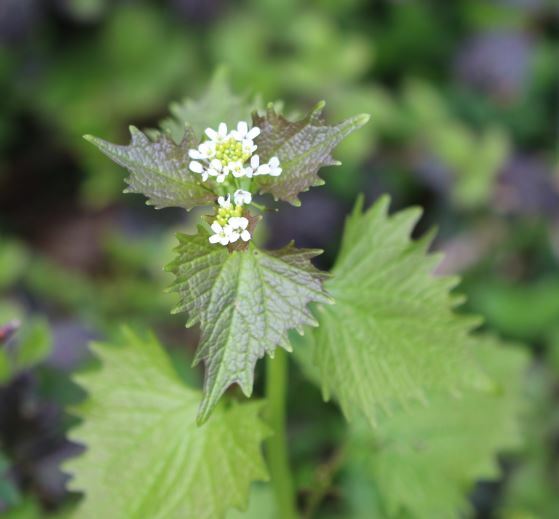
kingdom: Plantae
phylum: Tracheophyta
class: Magnoliopsida
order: Brassicales
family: Brassicaceae
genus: Alliaria
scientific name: Alliaria petiolata
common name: Garlic mustard
